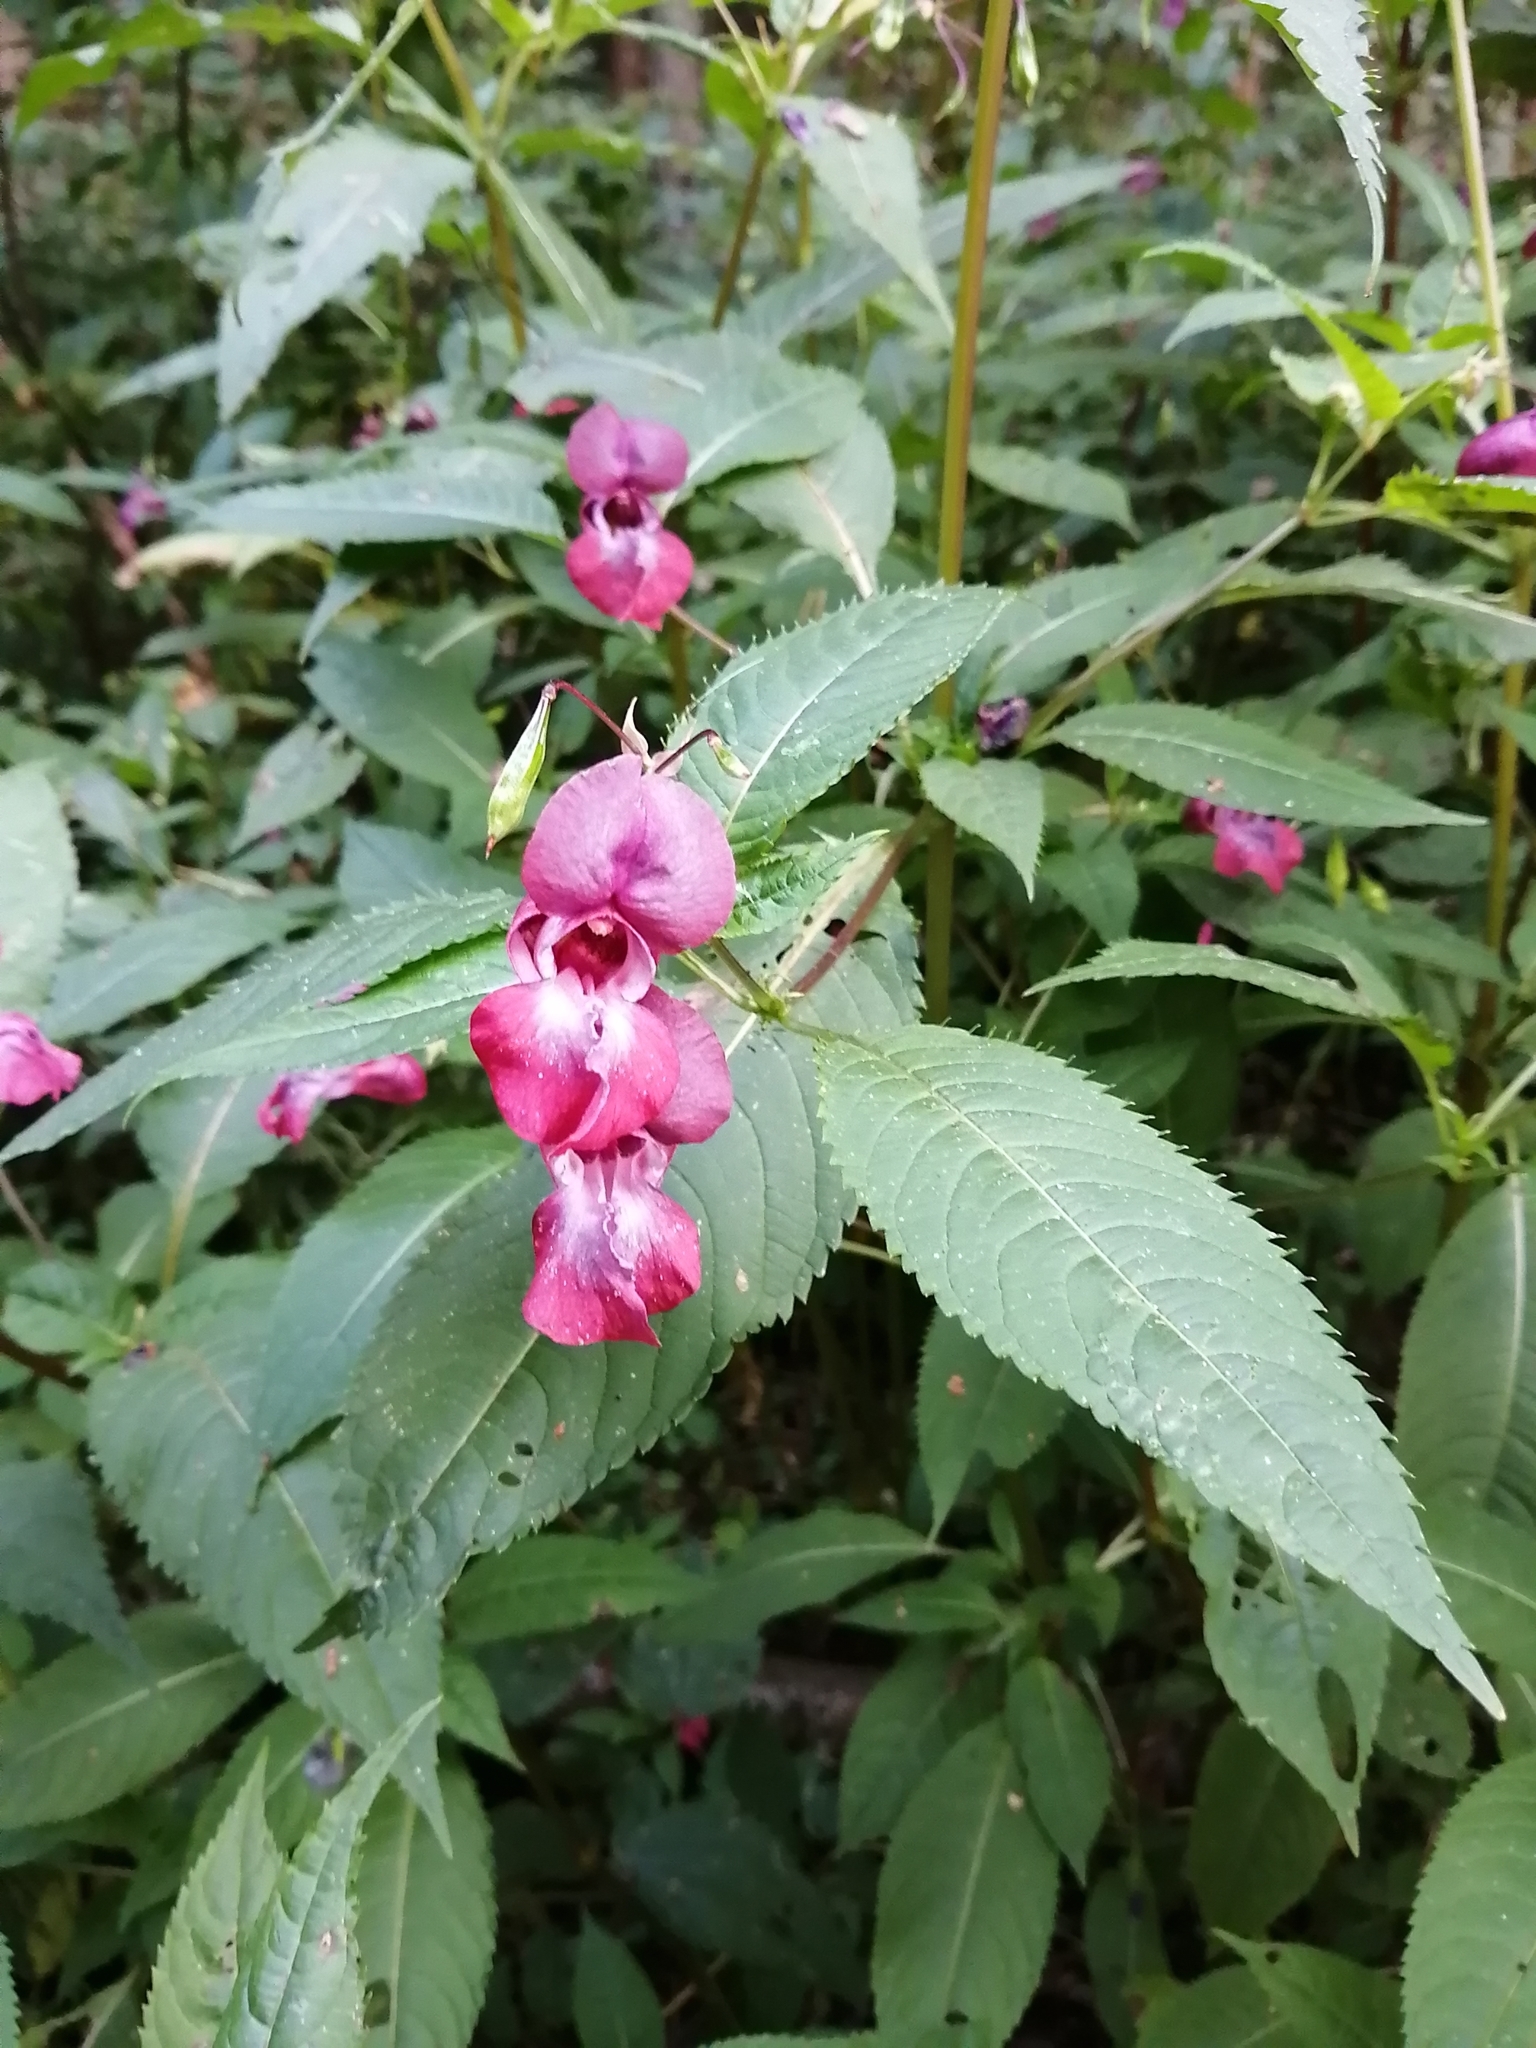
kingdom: Plantae
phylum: Tracheophyta
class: Magnoliopsida
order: Ericales
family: Balsaminaceae
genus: Impatiens
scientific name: Impatiens glandulifera
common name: Himalayan balsam
